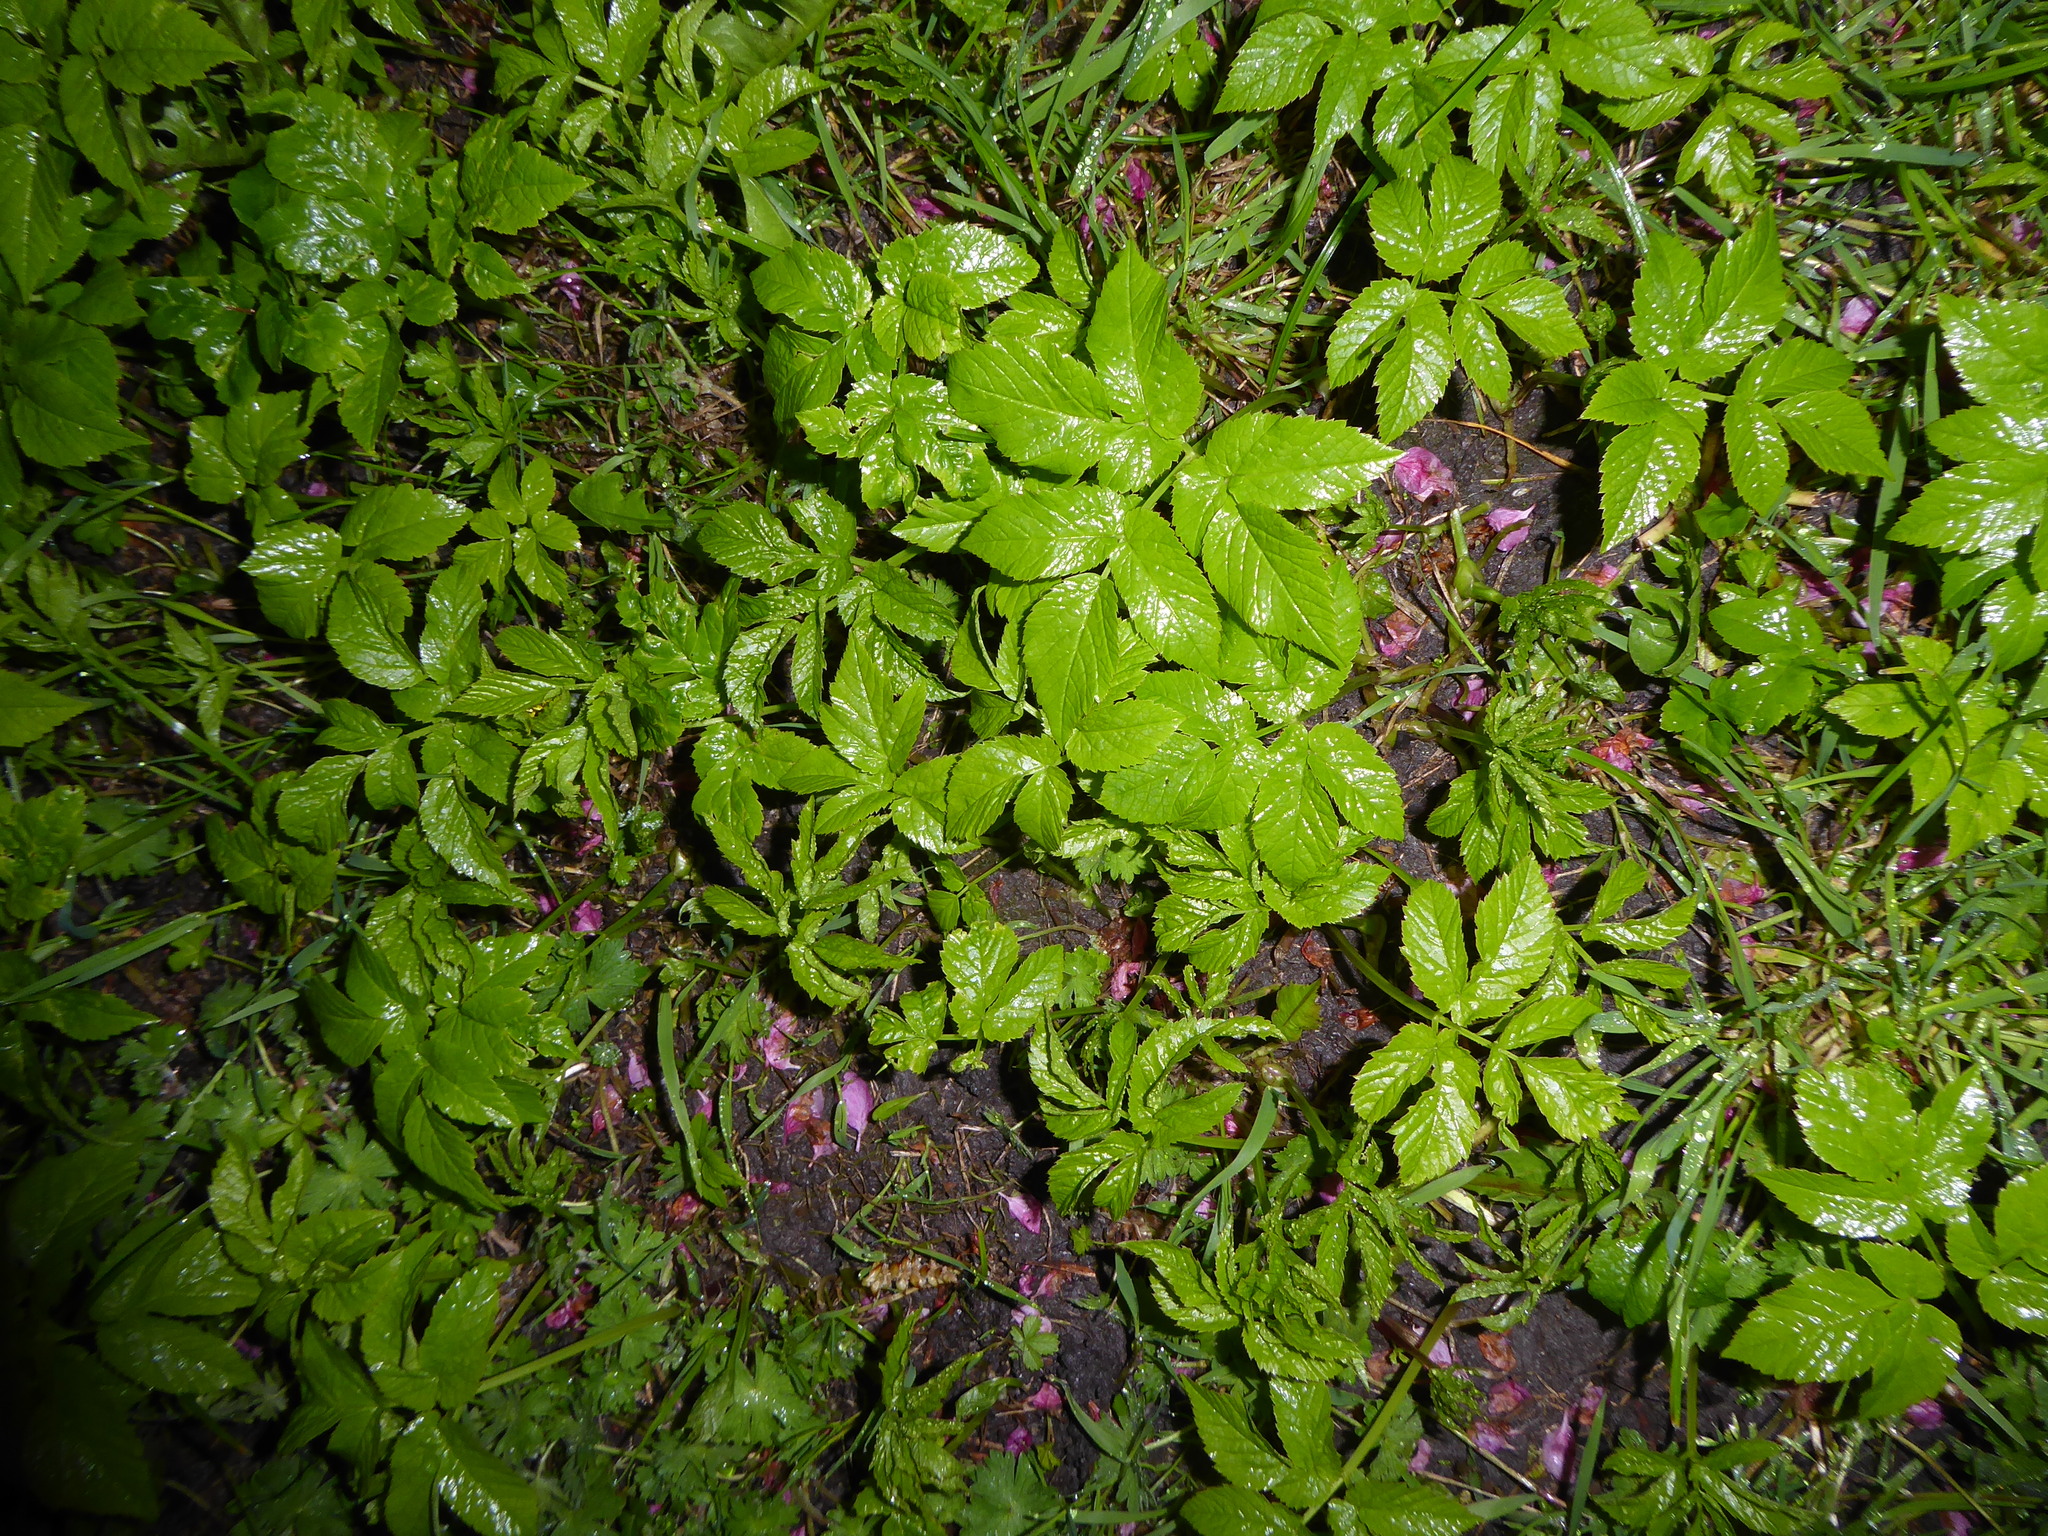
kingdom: Plantae
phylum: Tracheophyta
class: Magnoliopsida
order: Apiales
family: Apiaceae
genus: Aegopodium
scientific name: Aegopodium podagraria
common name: Ground-elder
